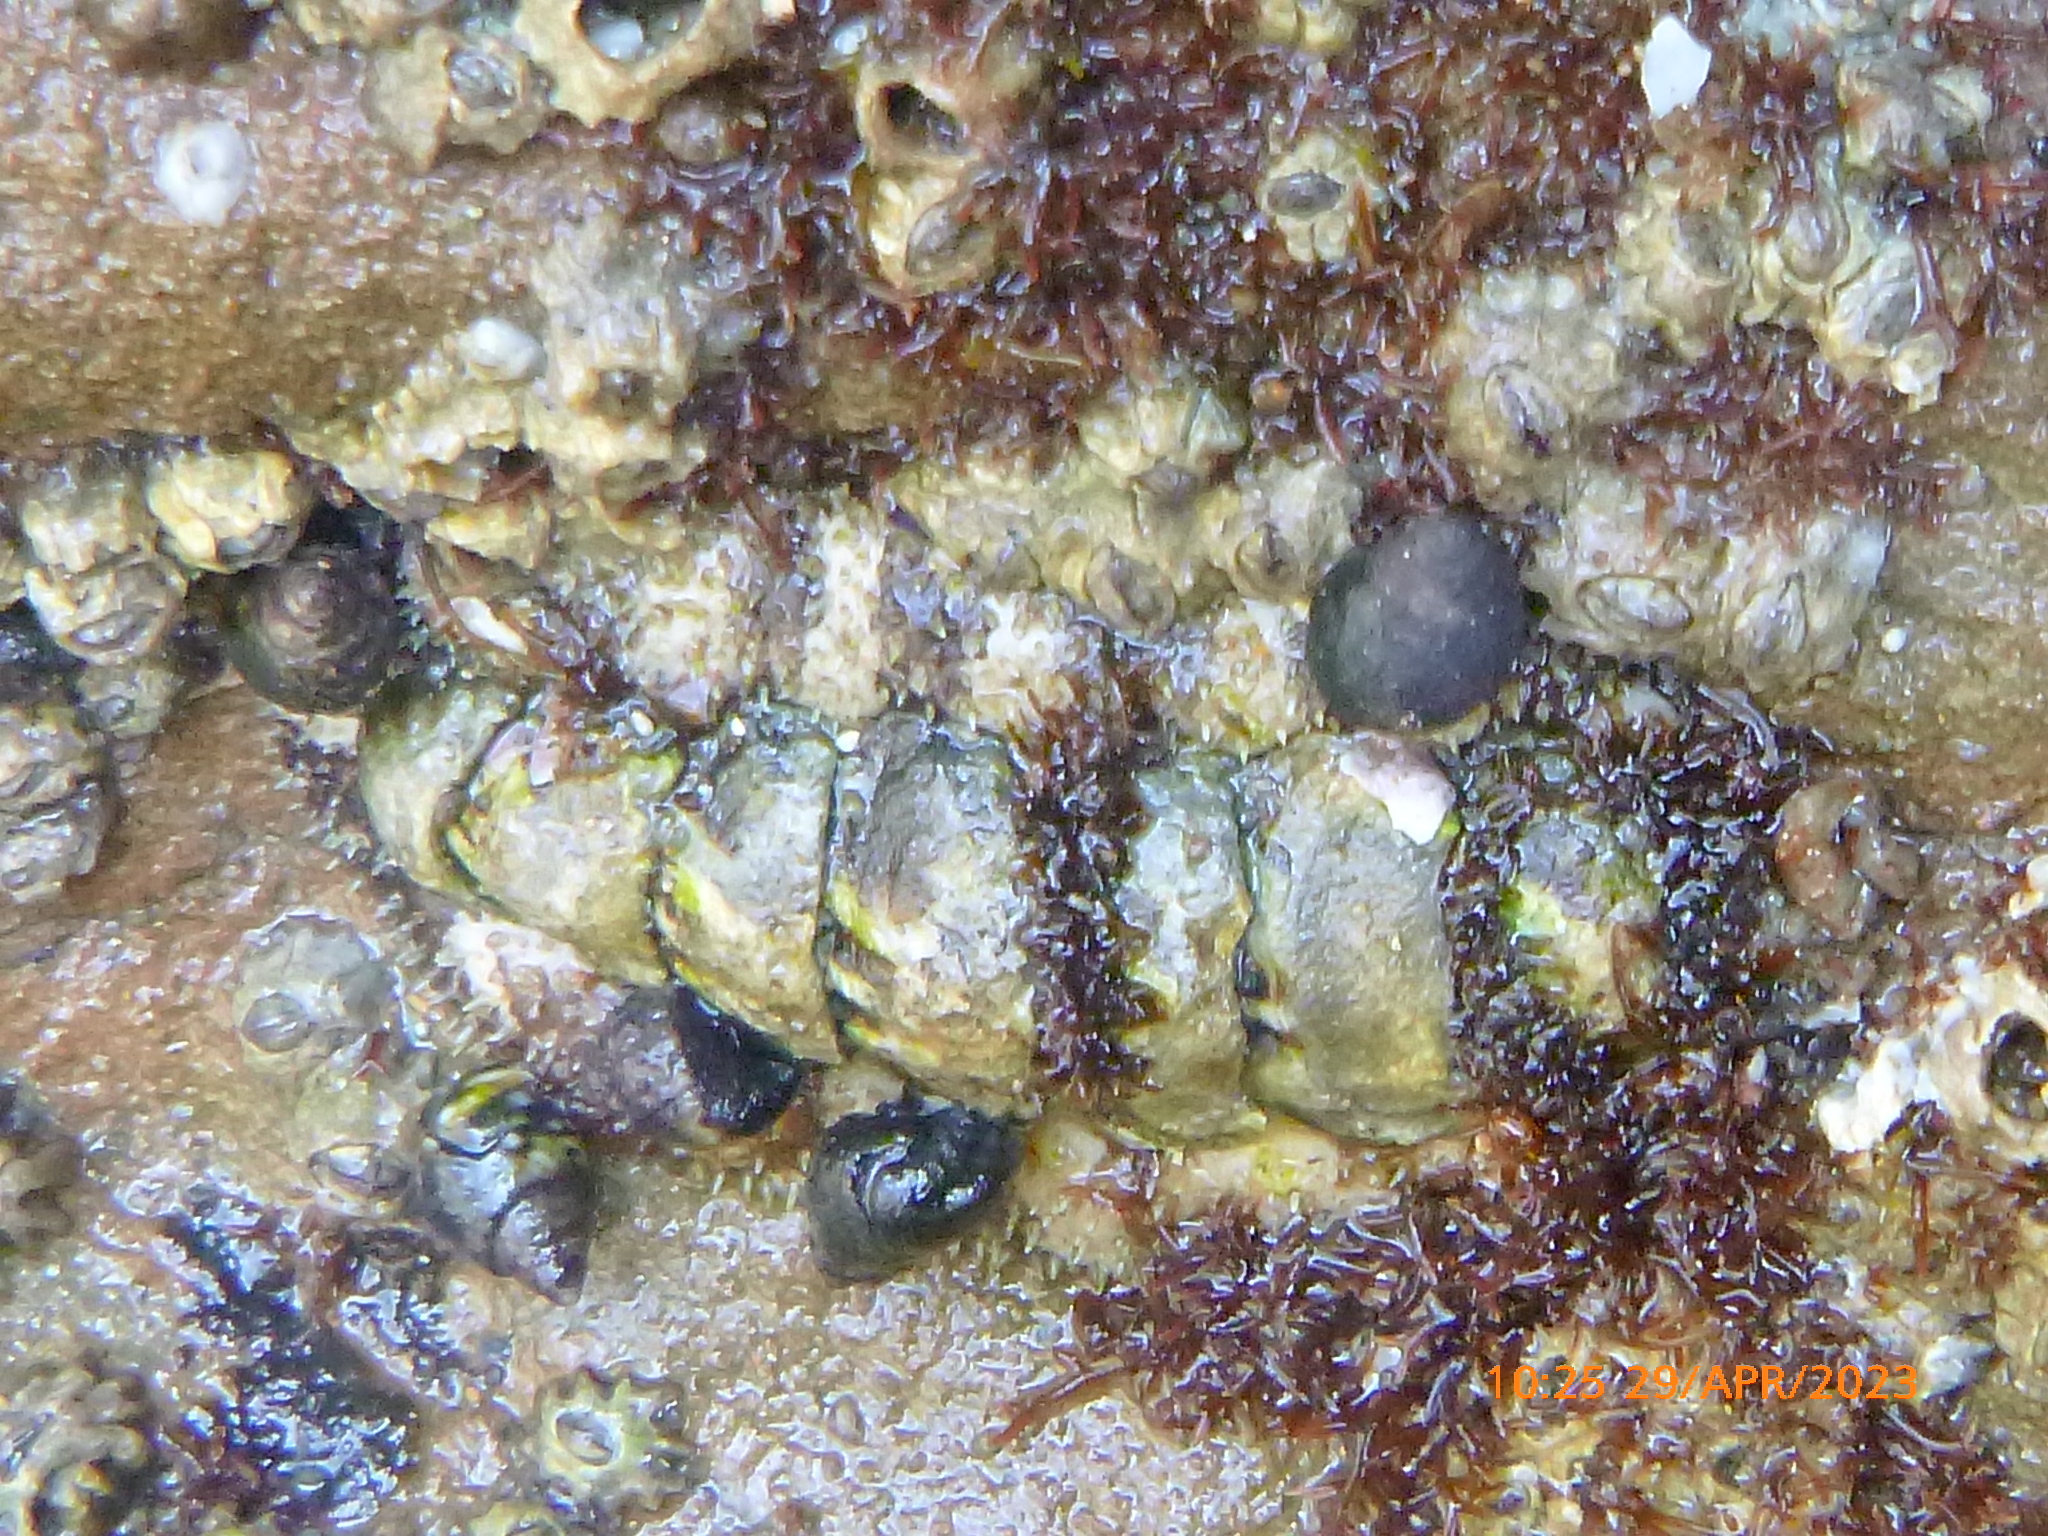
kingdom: Animalia
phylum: Mollusca
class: Polyplacophora
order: Chitonida
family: Tonicellidae
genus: Nuttallina
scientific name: Nuttallina californica
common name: California nuttall chiton
